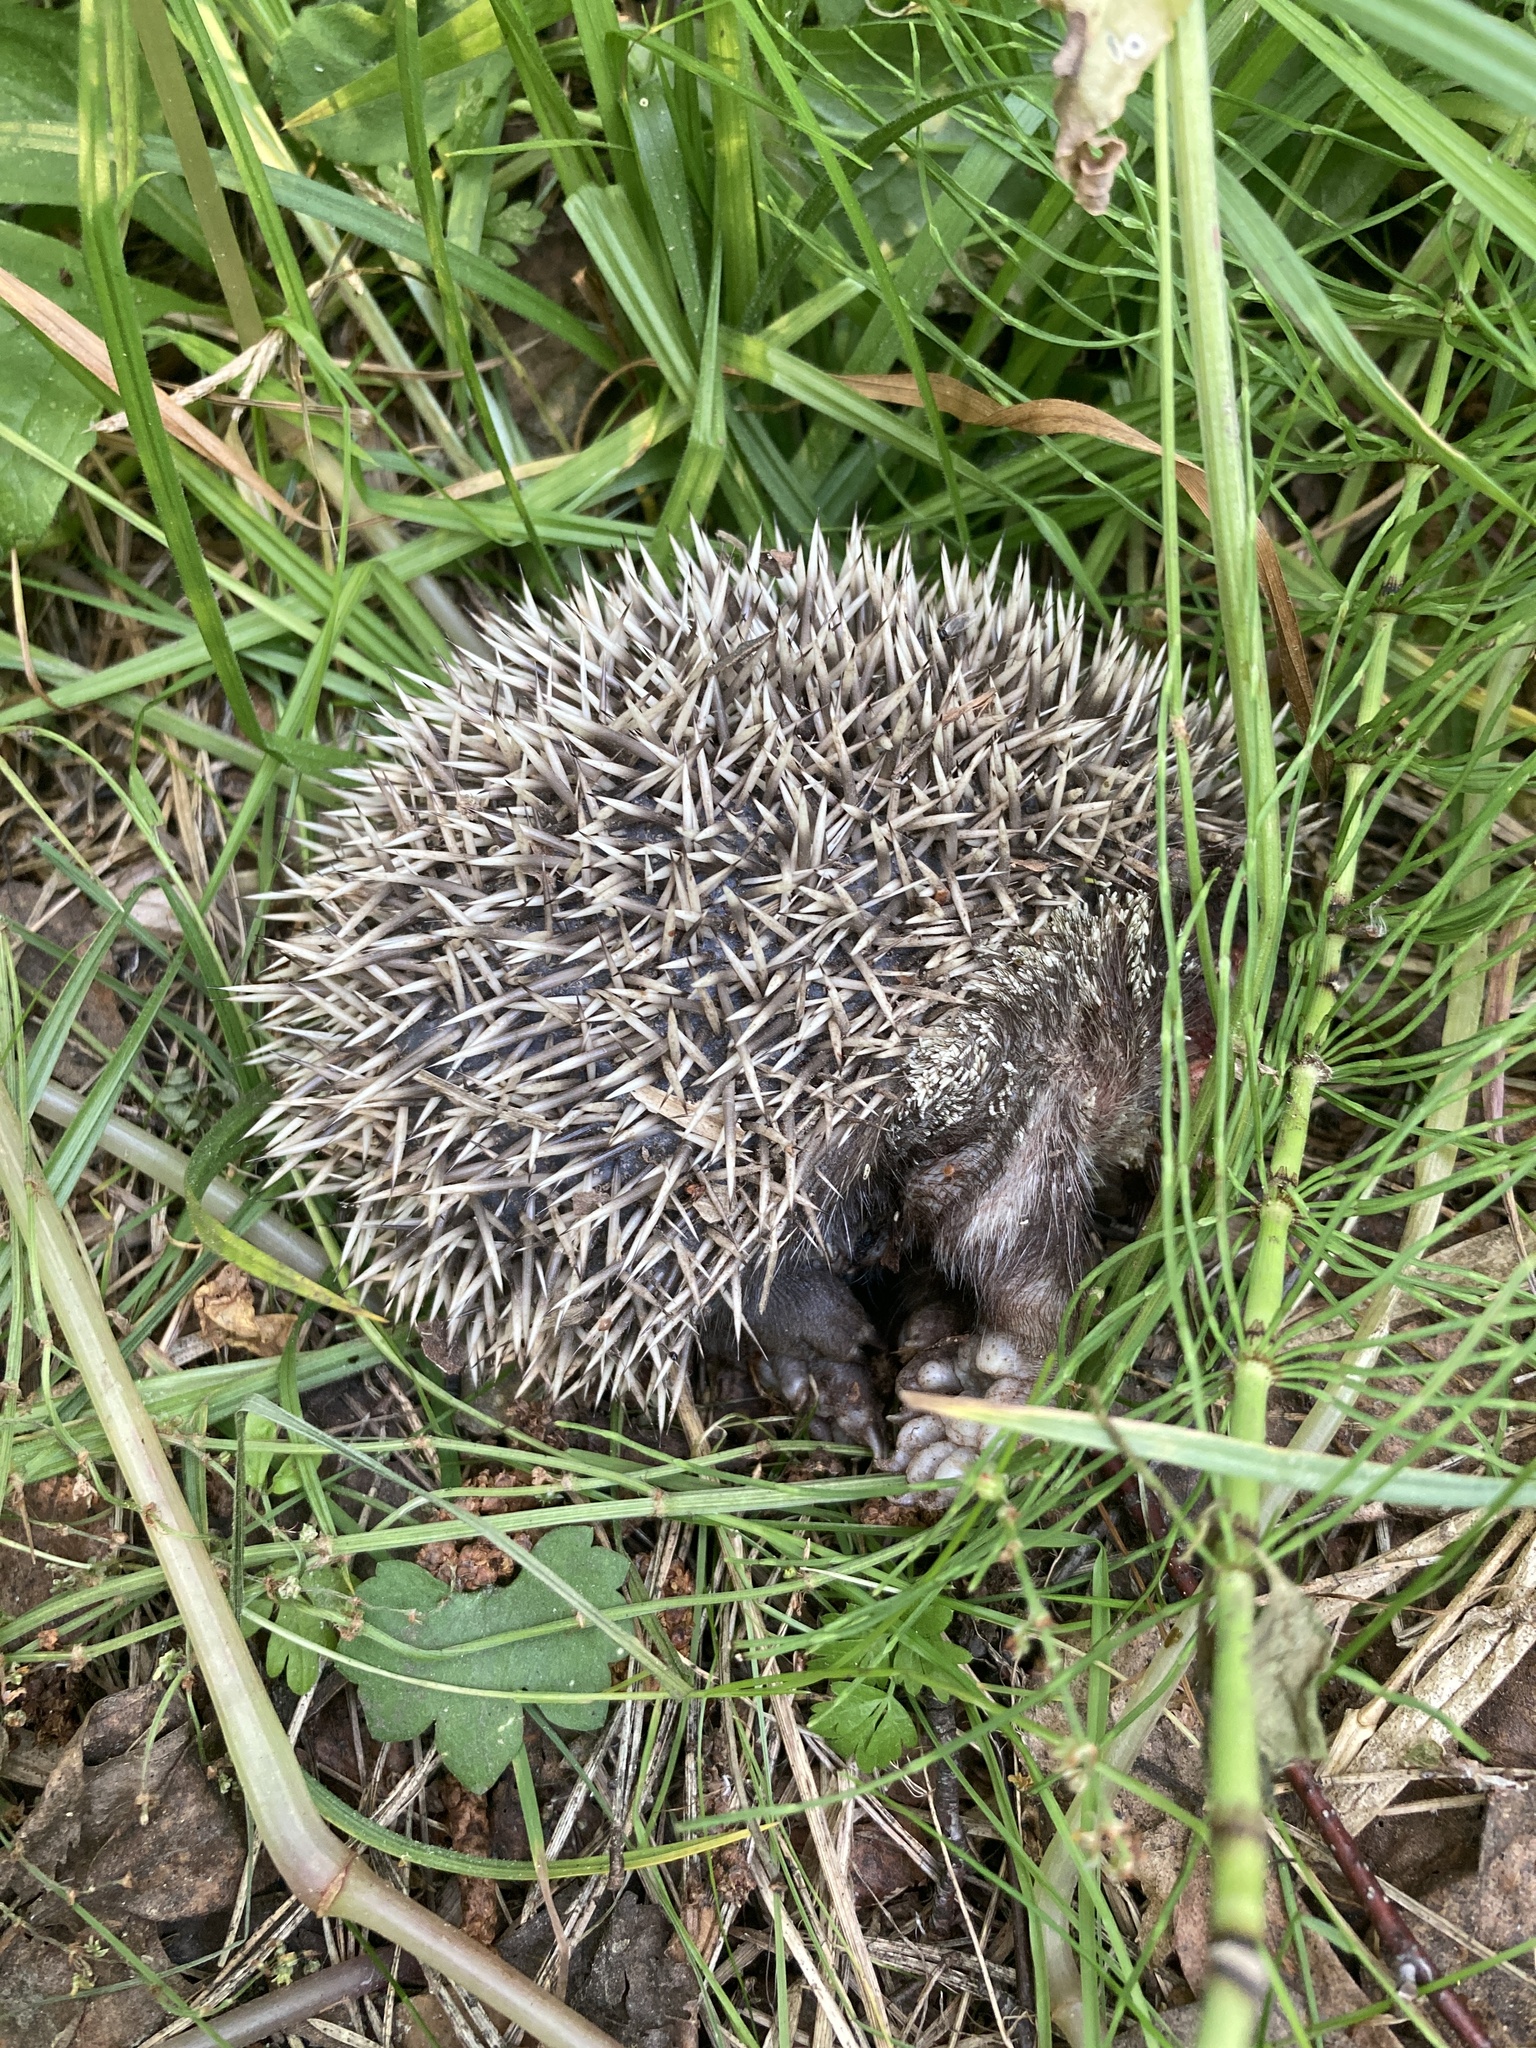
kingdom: Animalia
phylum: Chordata
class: Mammalia
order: Erinaceomorpha
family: Erinaceidae
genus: Erinaceus
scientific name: Erinaceus europaeus
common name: West european hedgehog
